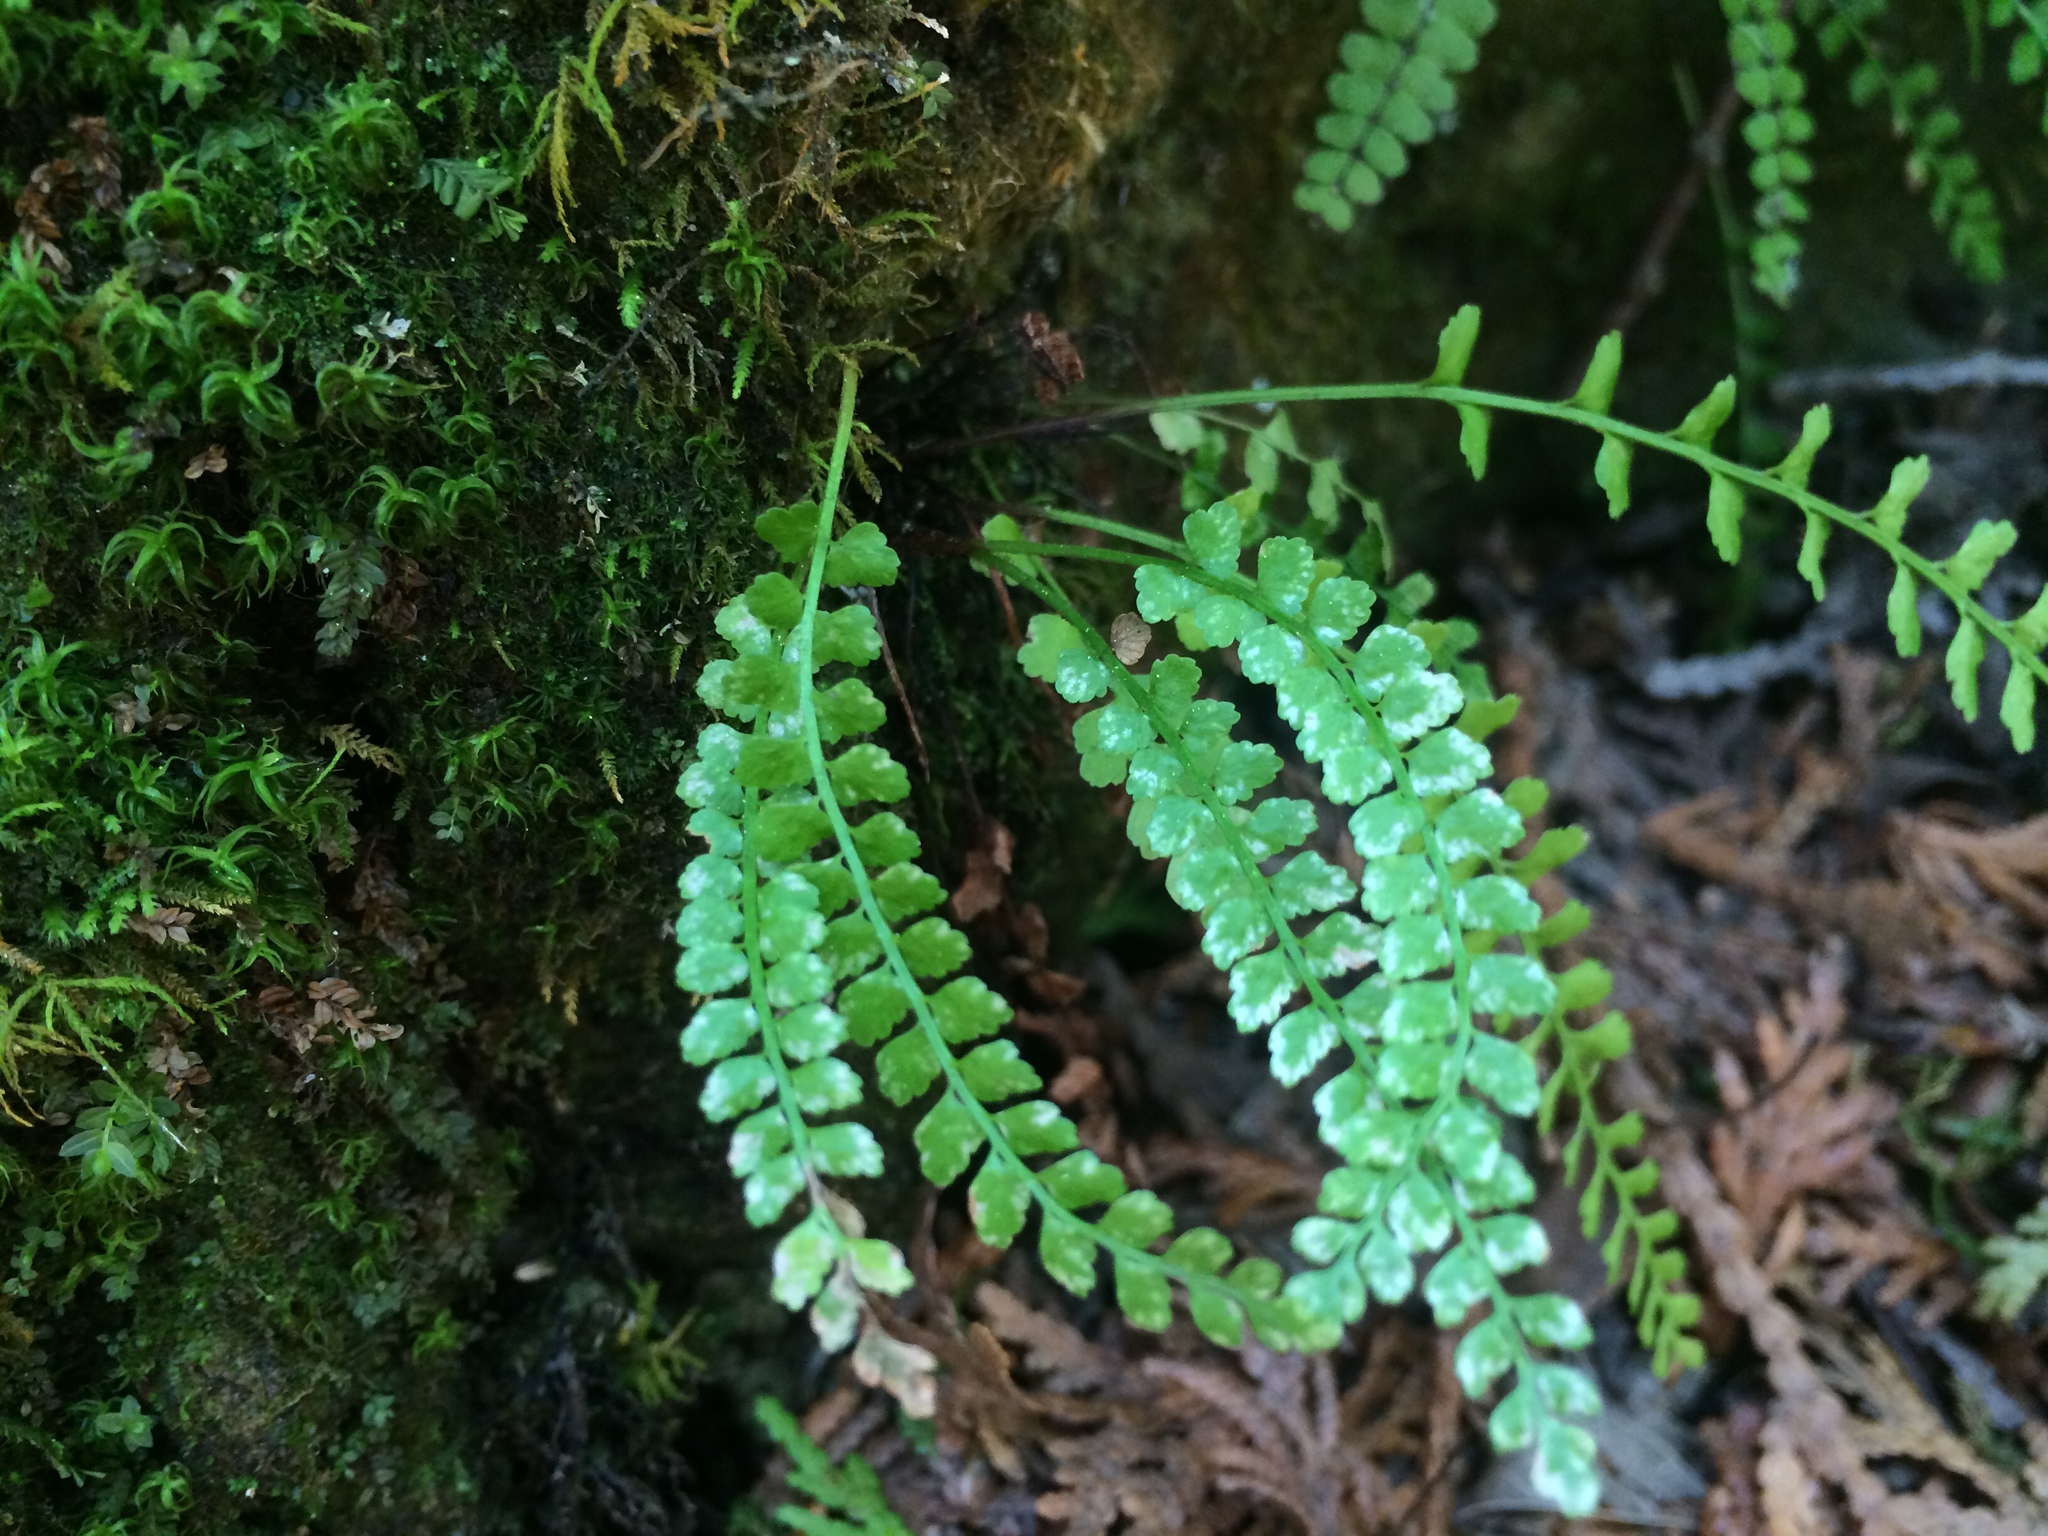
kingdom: Plantae
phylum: Tracheophyta
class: Polypodiopsida
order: Polypodiales
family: Aspleniaceae
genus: Asplenium
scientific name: Asplenium viride
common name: Green spleenwort
